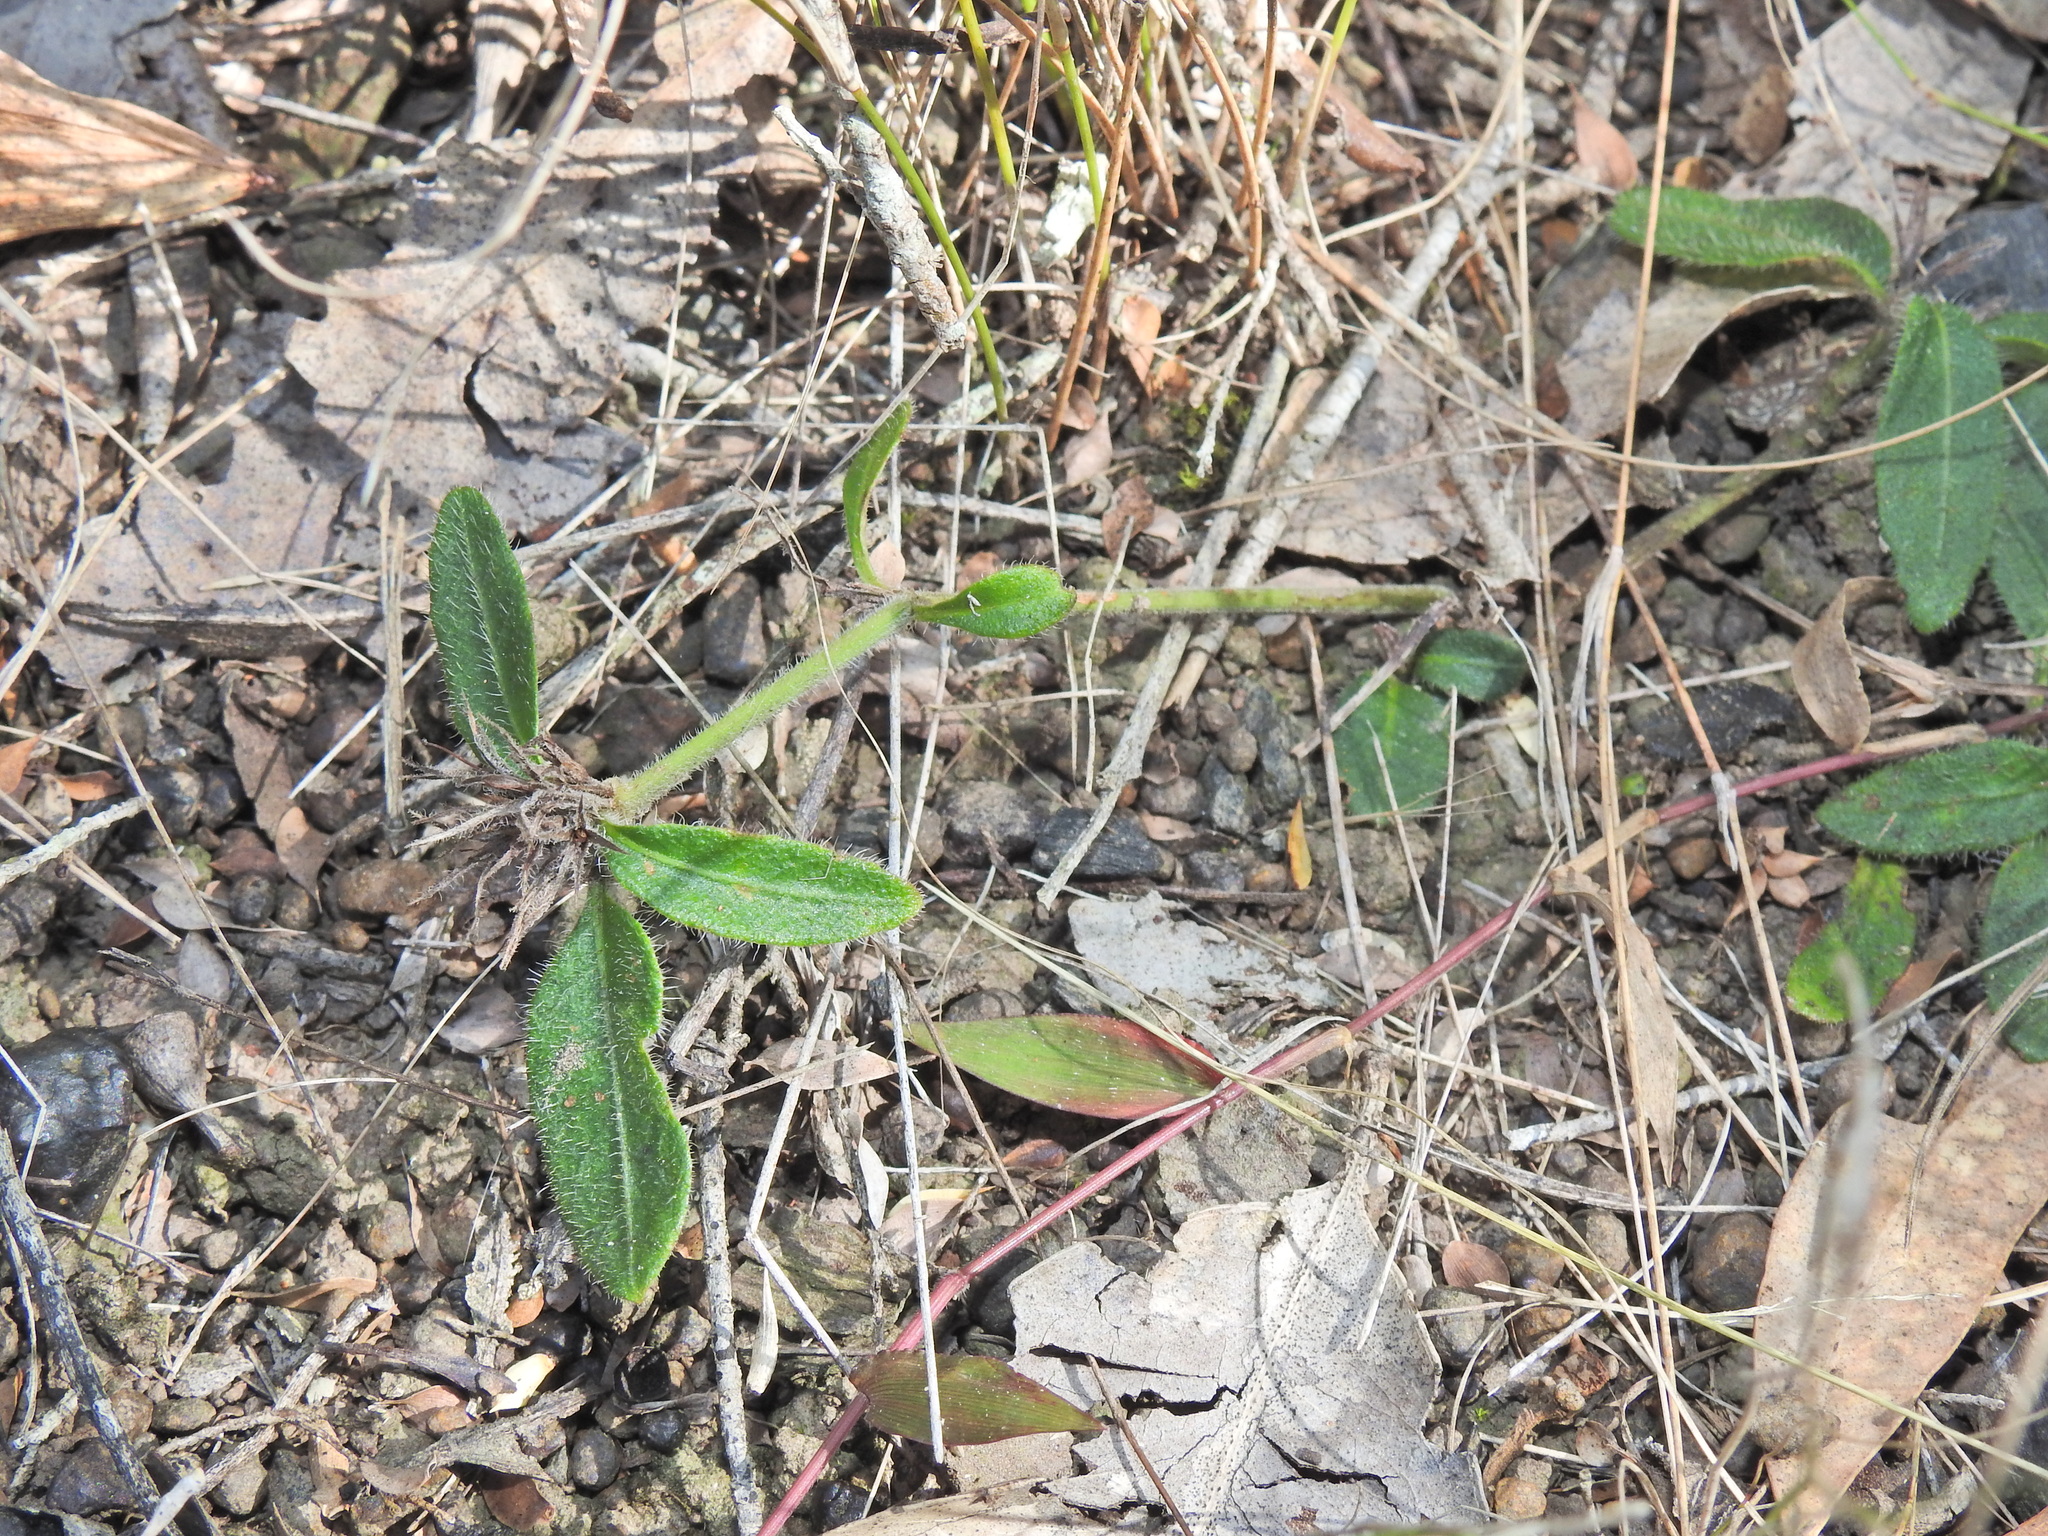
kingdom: Plantae
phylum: Tracheophyta
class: Magnoliopsida
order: Lamiales
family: Acanthaceae
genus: Brunoniella
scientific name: Brunoniella australis
